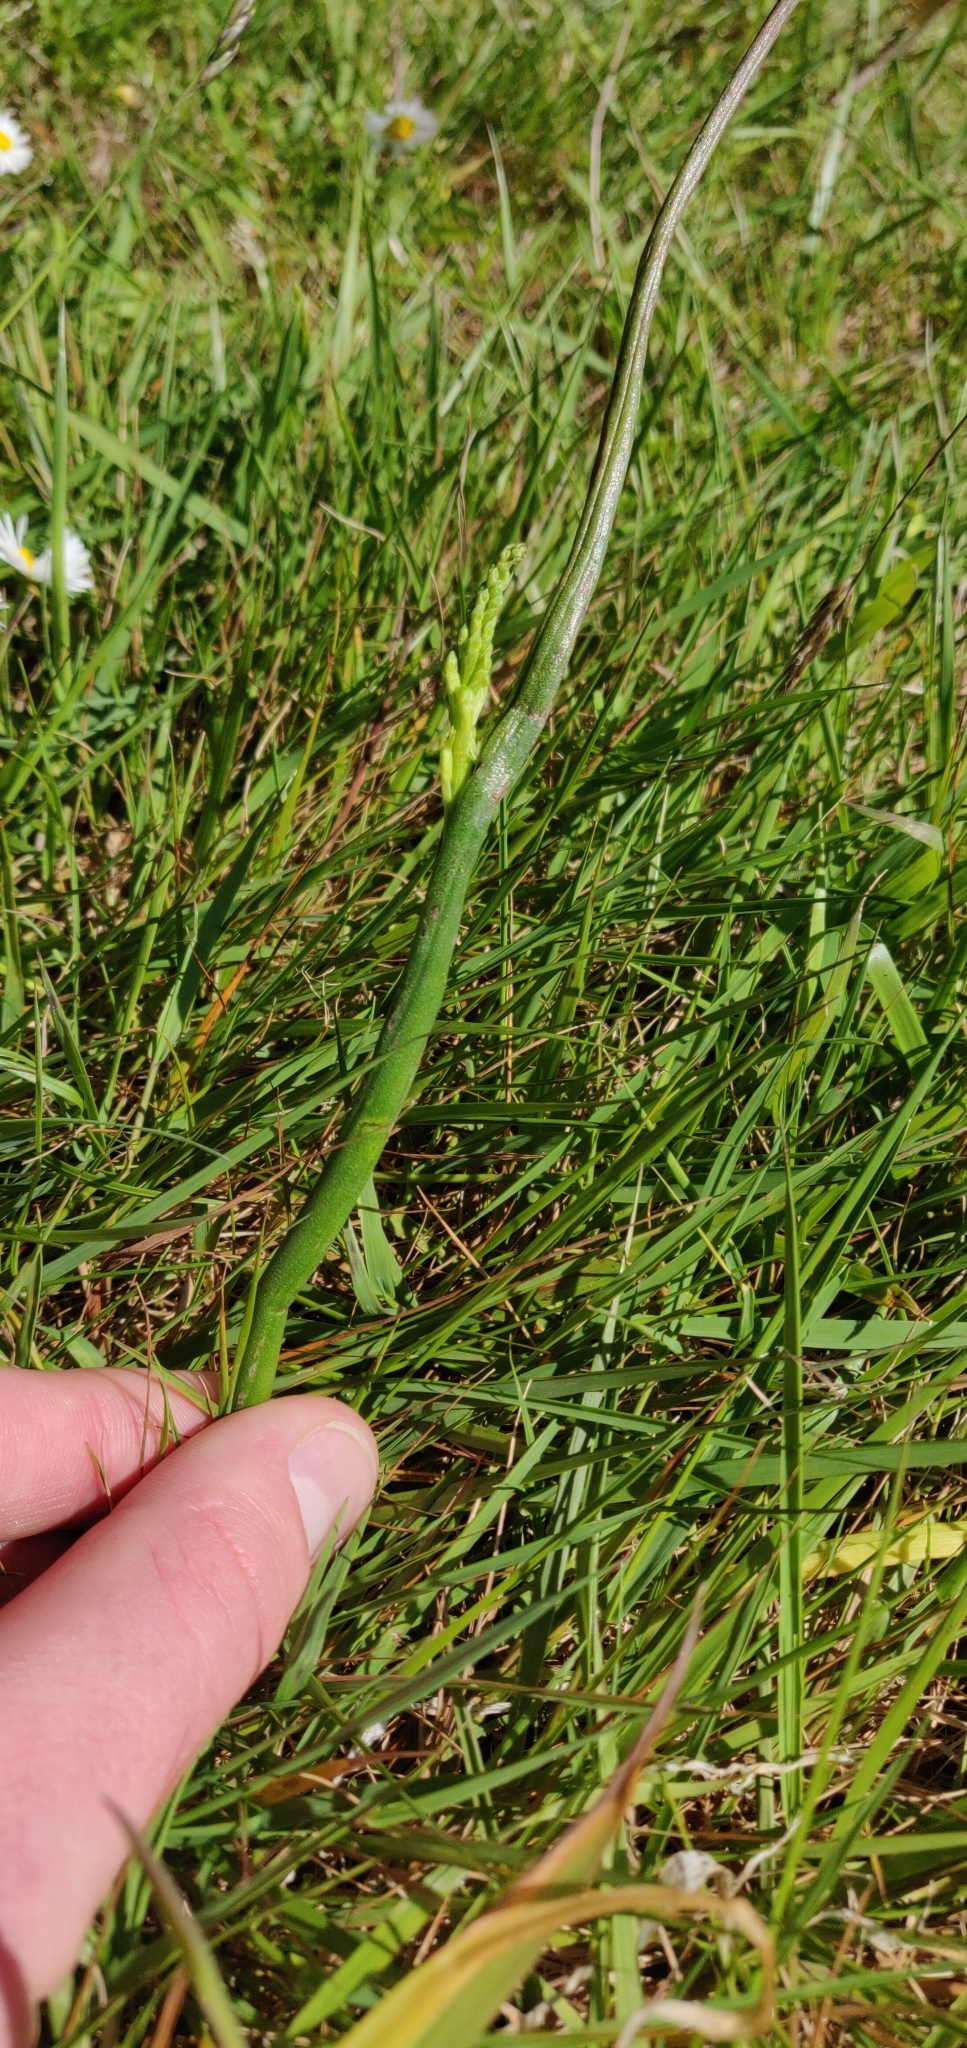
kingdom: Plantae
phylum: Tracheophyta
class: Liliopsida
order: Asparagales
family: Orchidaceae
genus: Microtis
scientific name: Microtis unifolia
